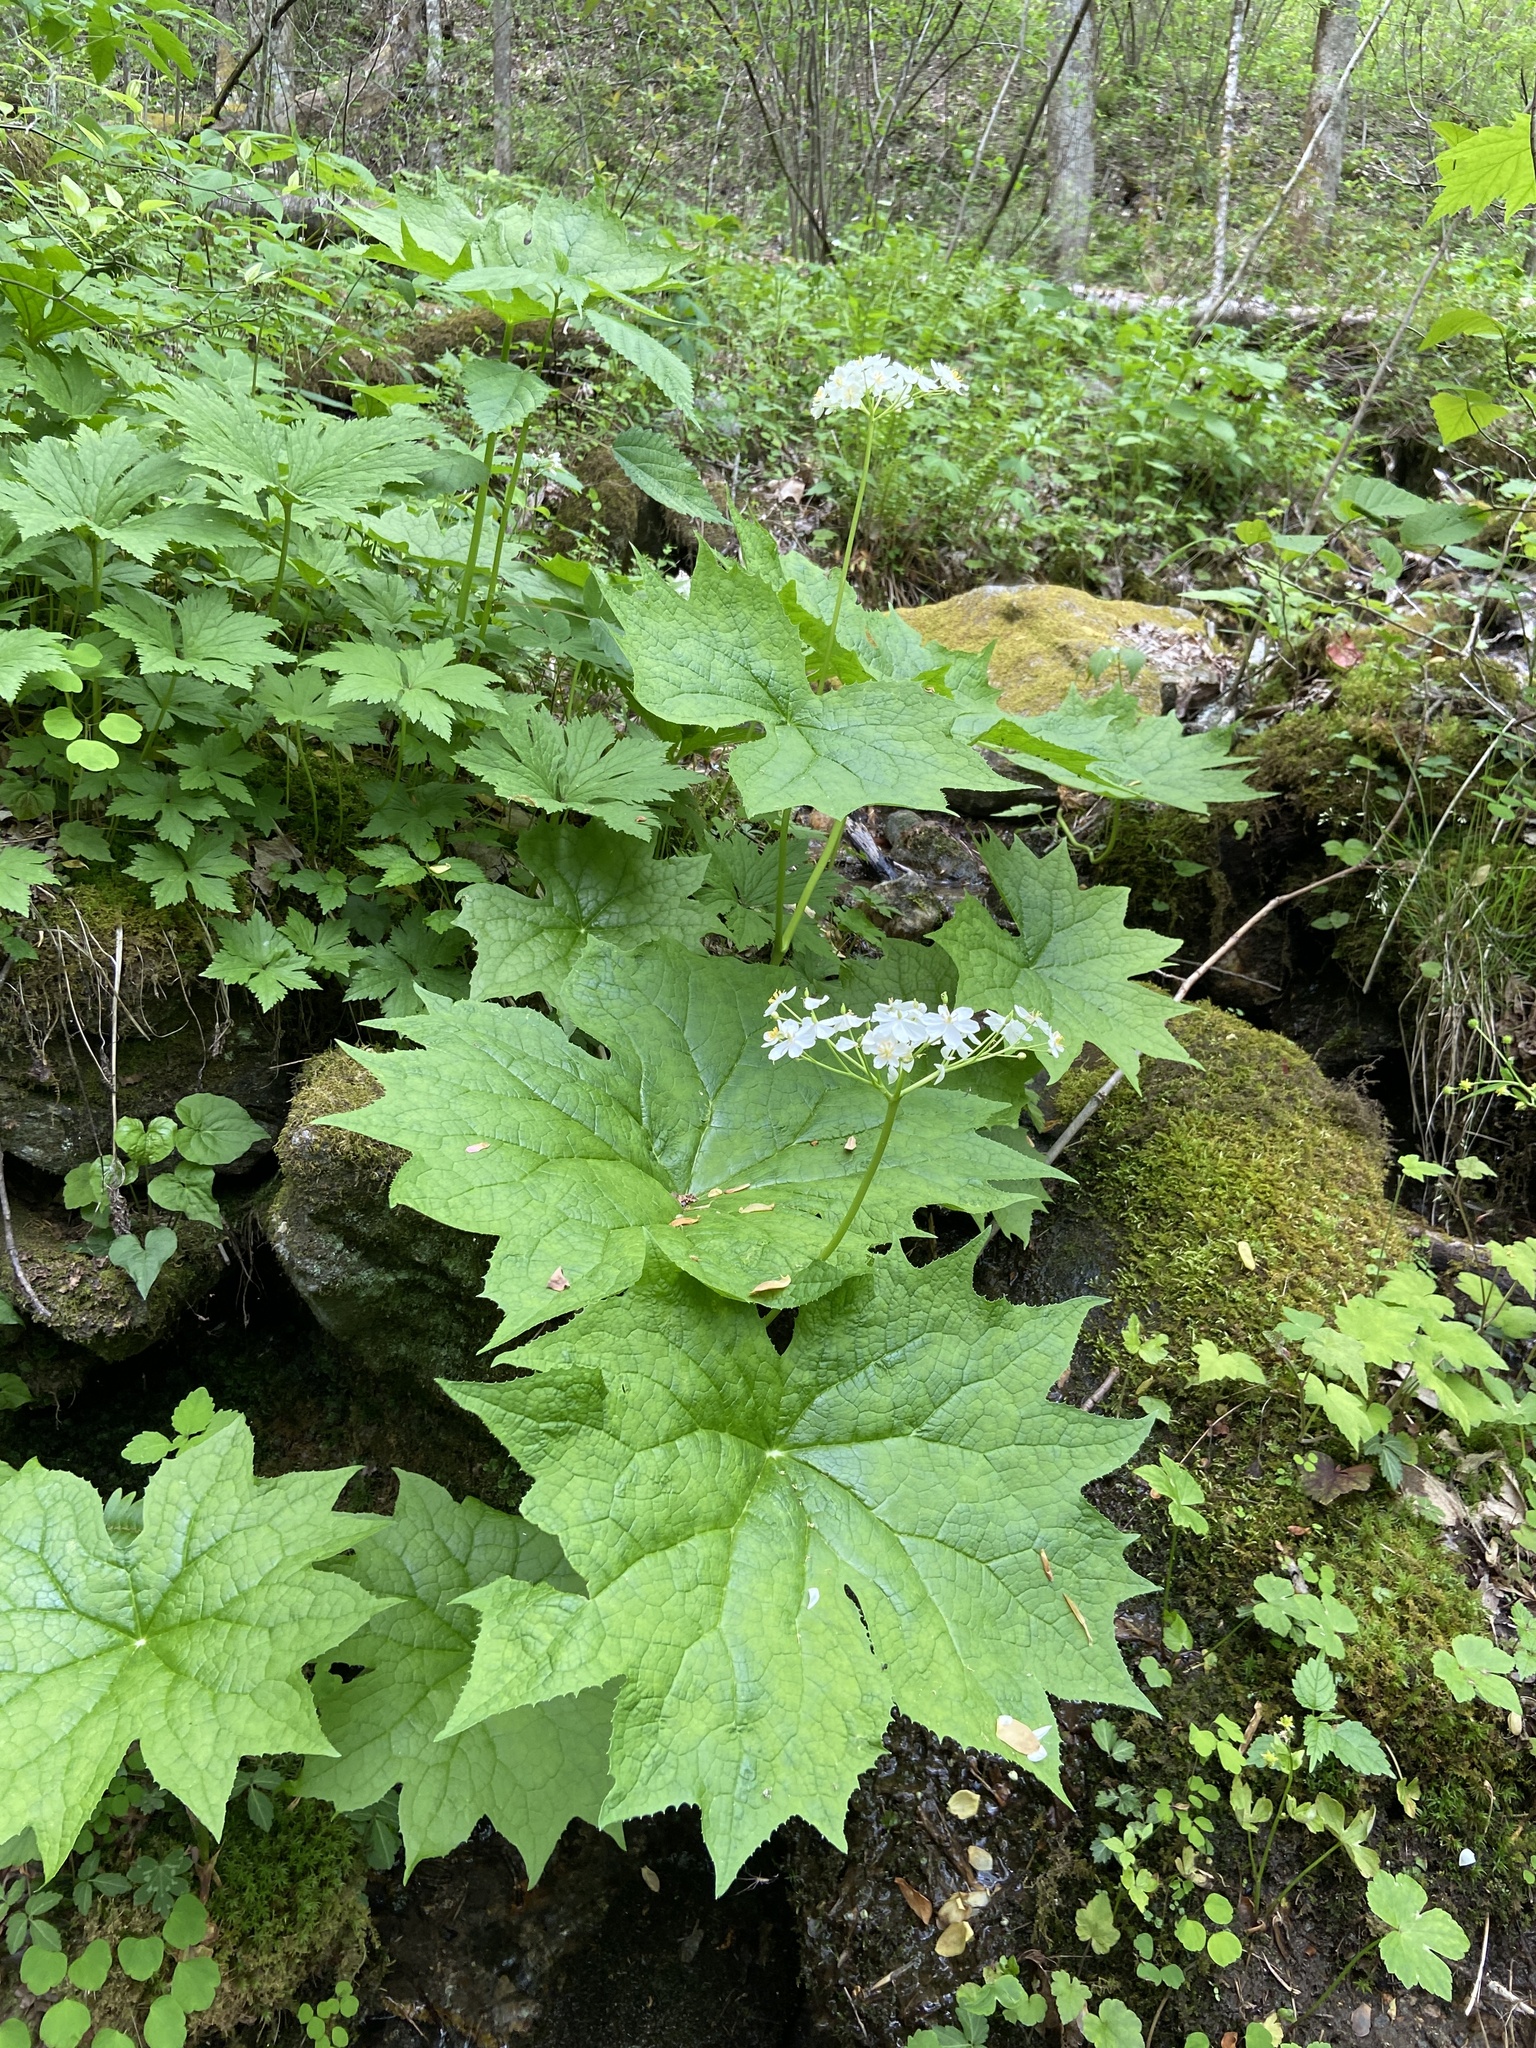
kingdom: Plantae
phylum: Tracheophyta
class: Magnoliopsida
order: Ranunculales
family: Berberidaceae
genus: Diphylleia
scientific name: Diphylleia cymosa
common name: Umbrella-leaf
